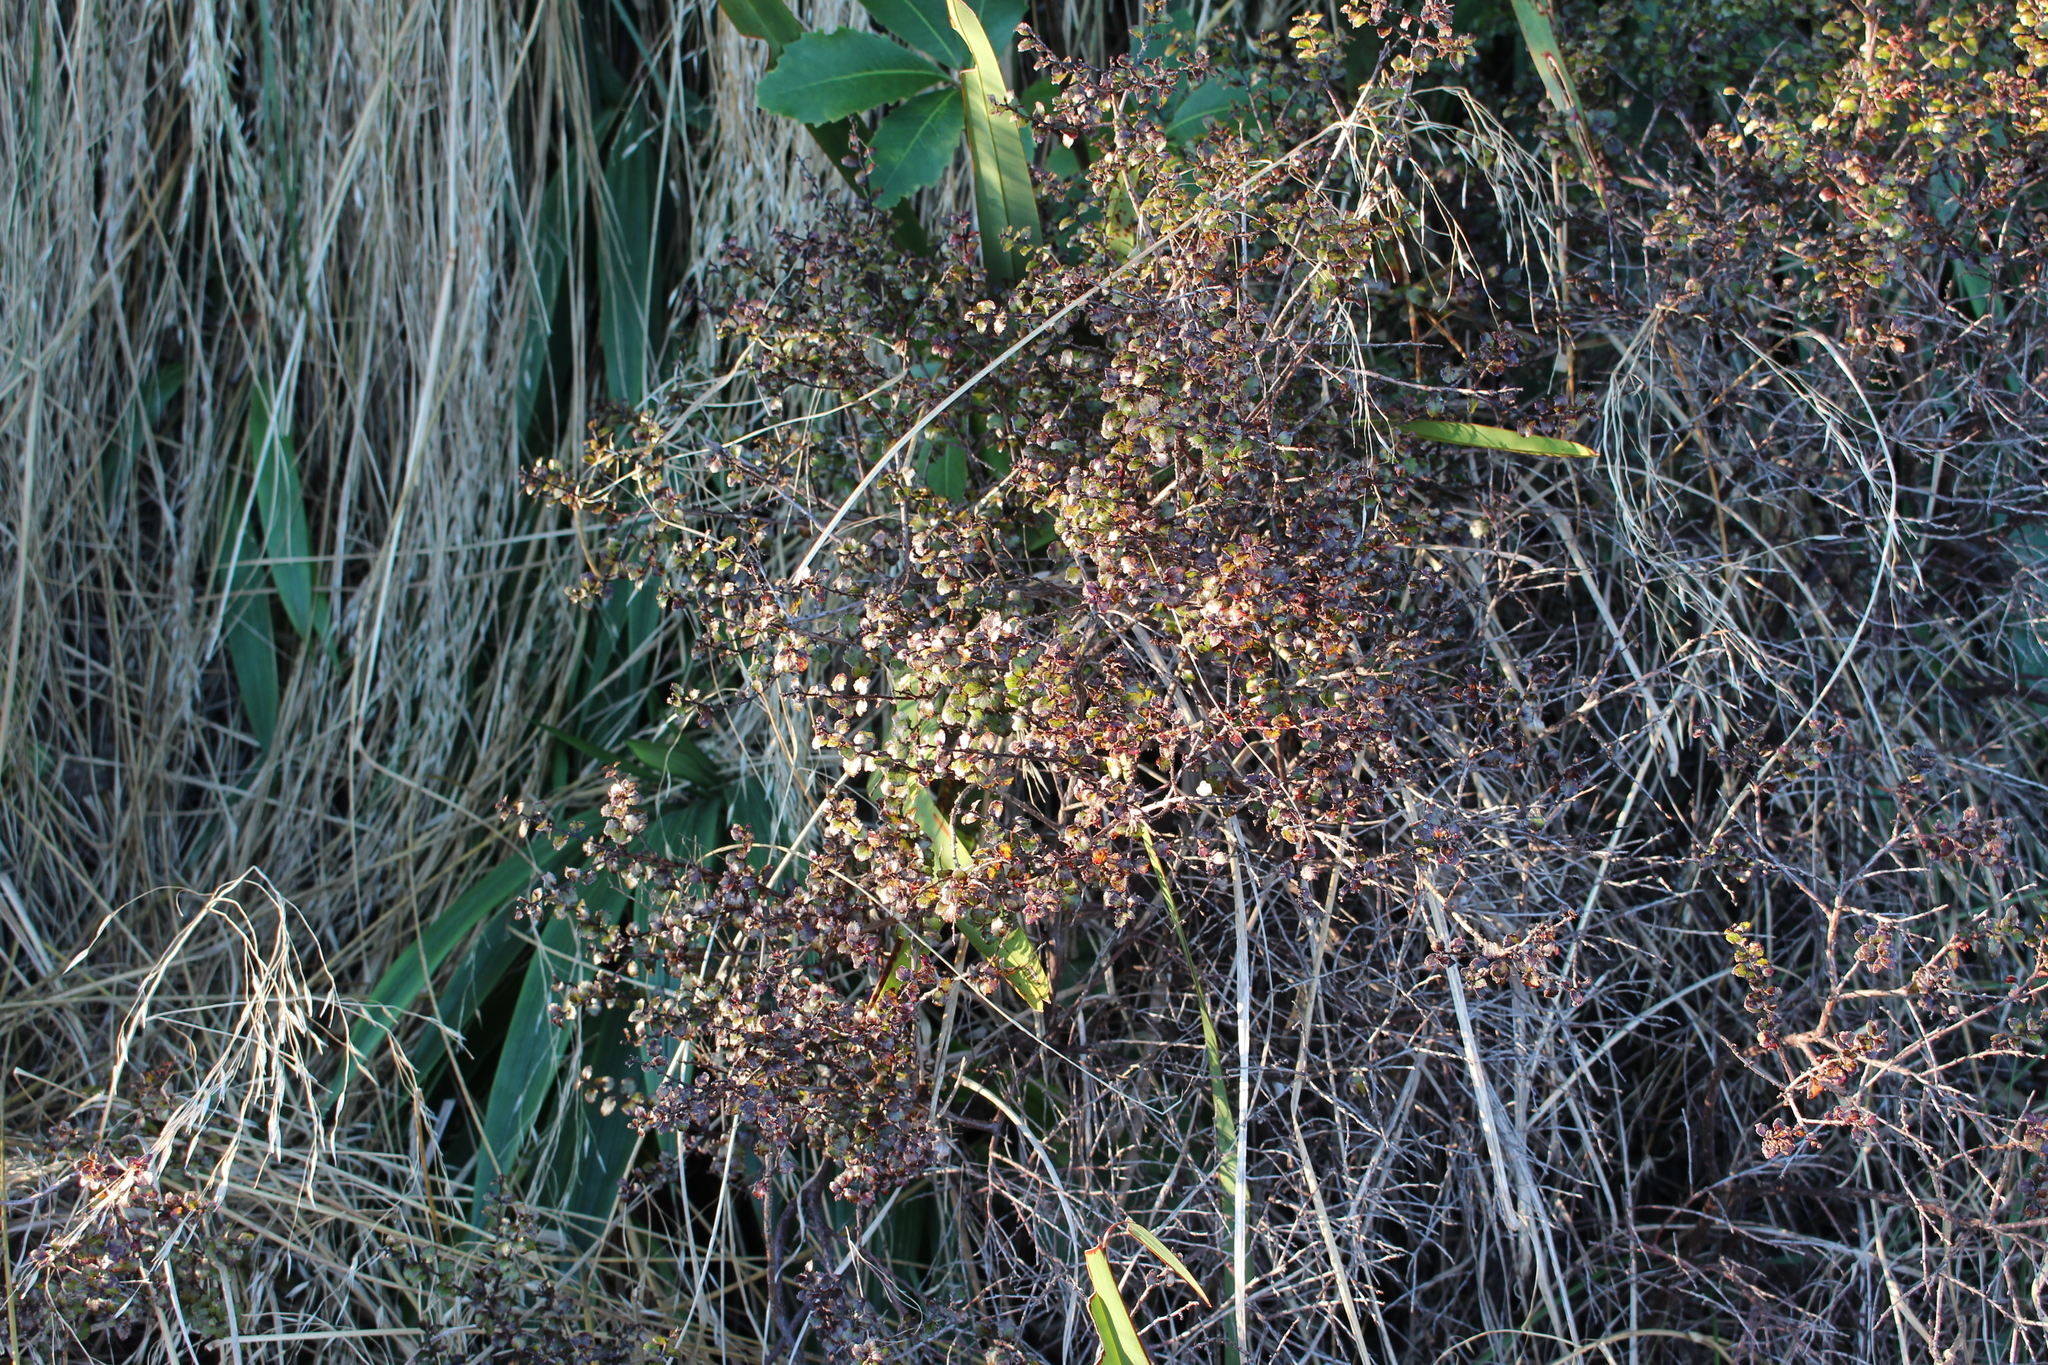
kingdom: Plantae
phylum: Tracheophyta
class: Magnoliopsida
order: Ericales
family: Ericaceae
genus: Gaultheria
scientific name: Gaultheria antipoda
